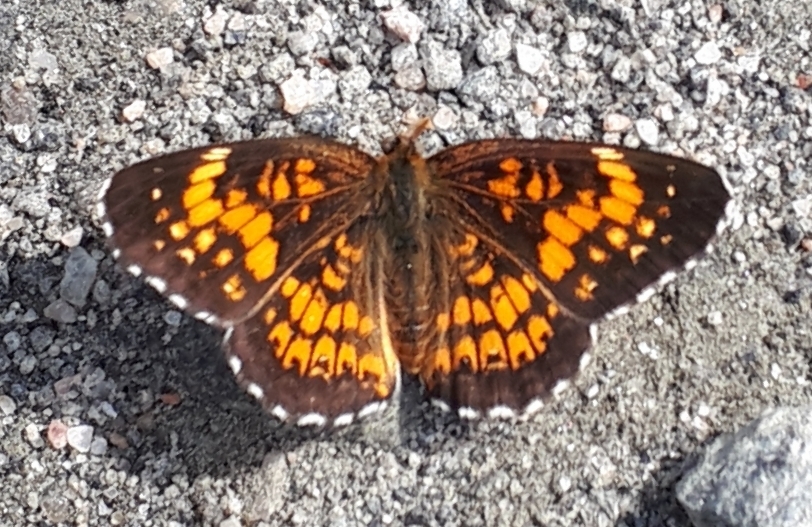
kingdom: Animalia
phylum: Arthropoda
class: Insecta
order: Lepidoptera
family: Nymphalidae
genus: Chlosyne
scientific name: Chlosyne harrisii
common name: Harris's checkerspot
